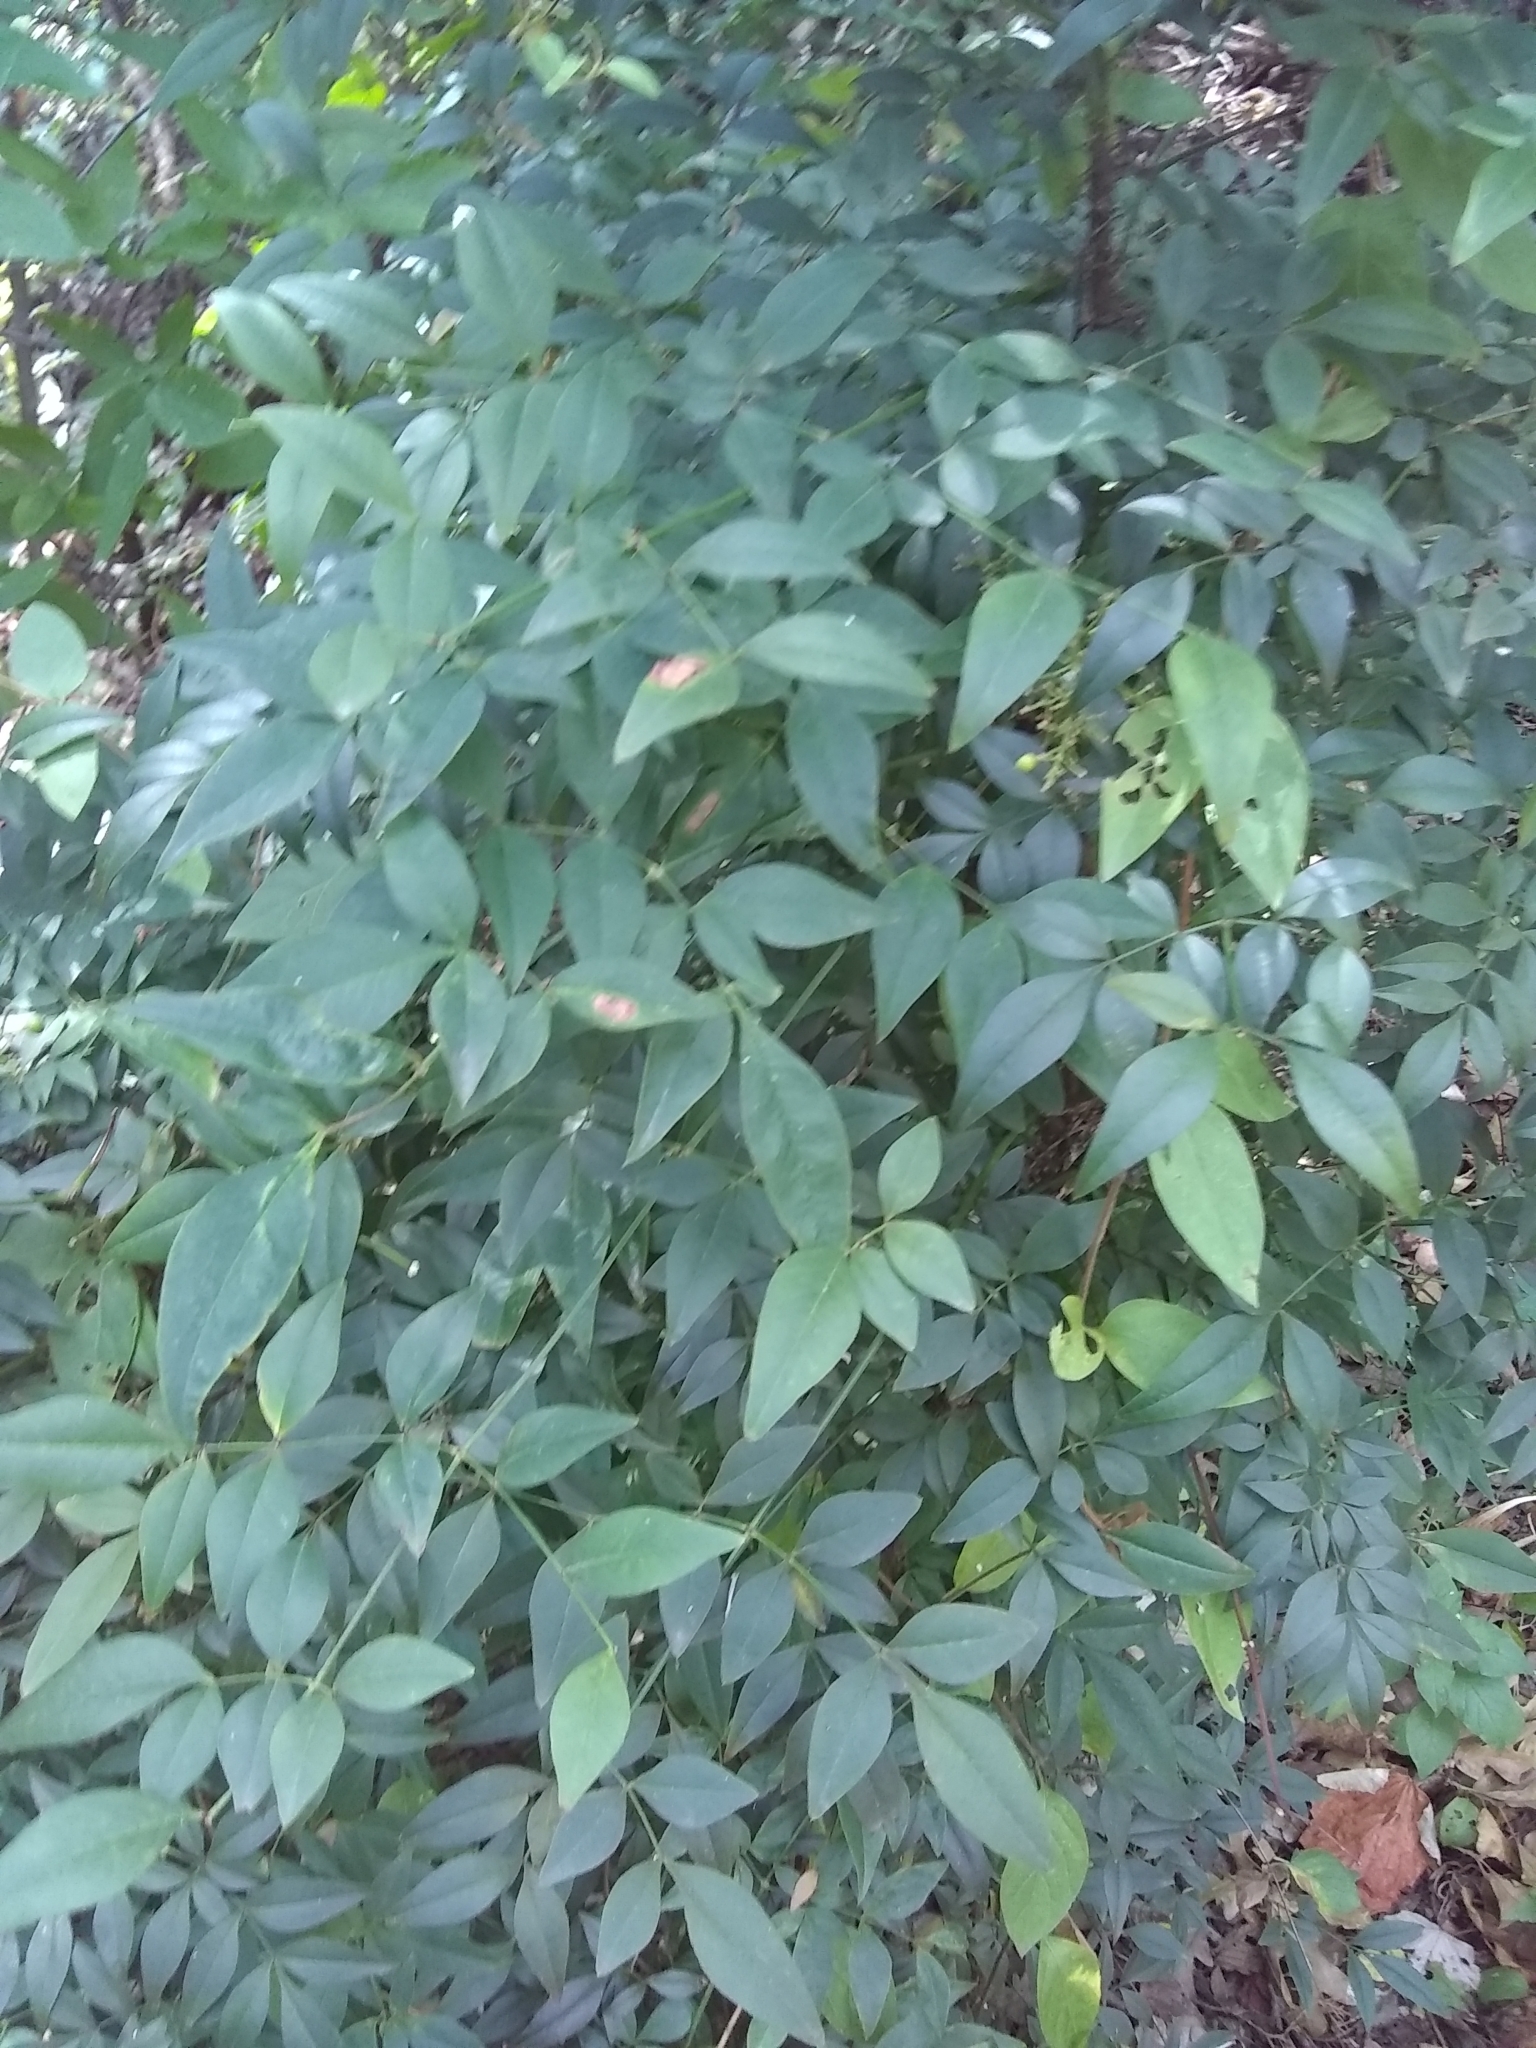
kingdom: Plantae
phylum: Tracheophyta
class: Magnoliopsida
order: Ranunculales
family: Berberidaceae
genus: Nandina
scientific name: Nandina domestica
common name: Sacred bamboo
